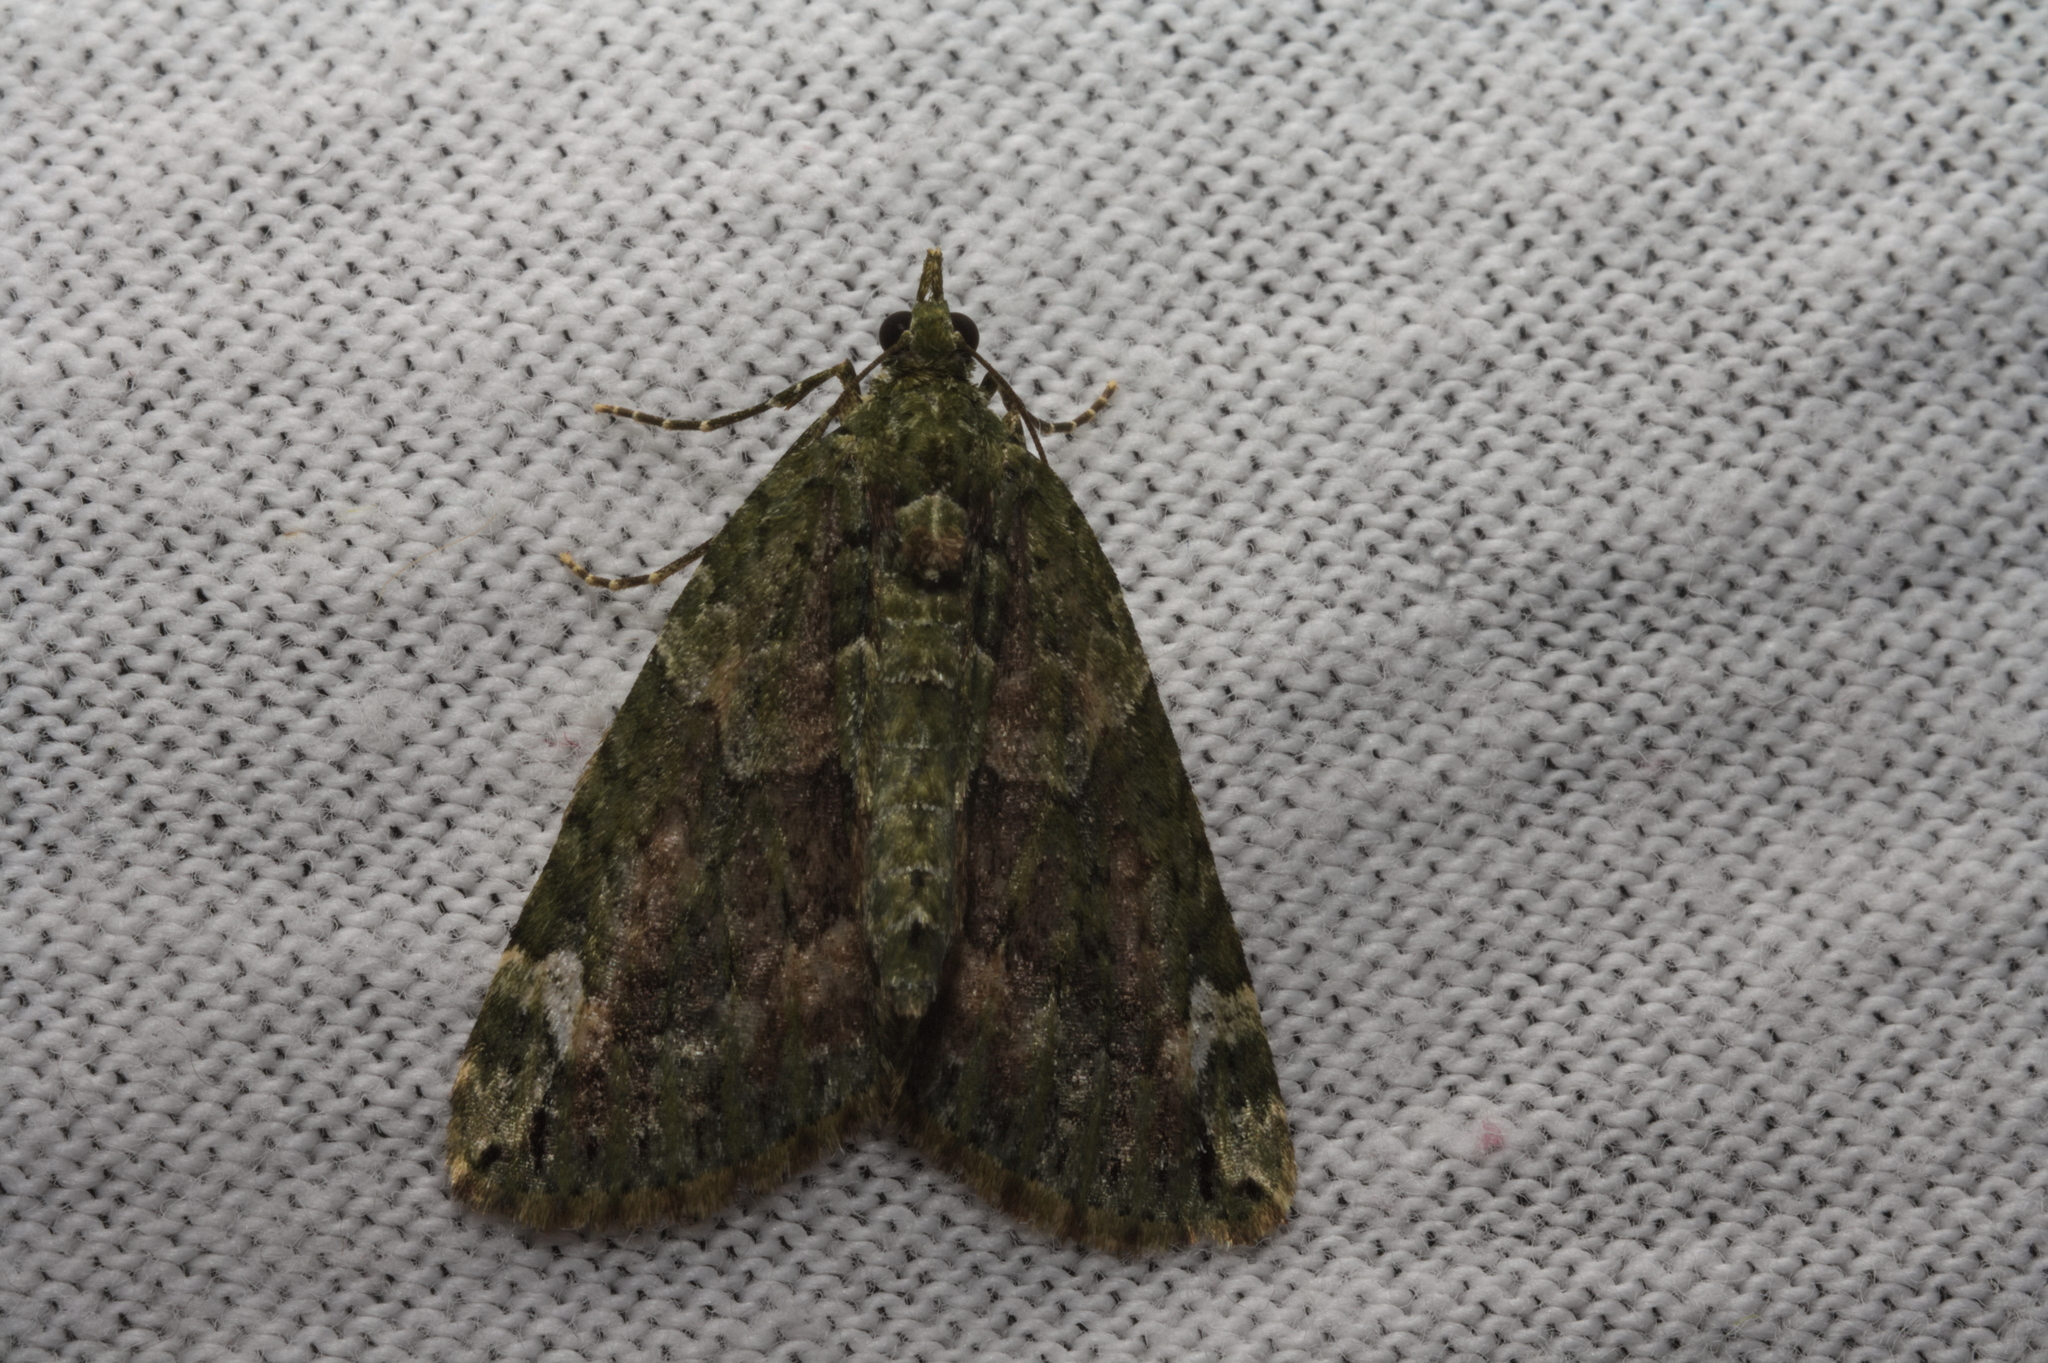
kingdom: Animalia
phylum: Arthropoda
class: Insecta
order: Lepidoptera
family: Geometridae
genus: Chloroclysta
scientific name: Chloroclysta siterata
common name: Red-green carpet
